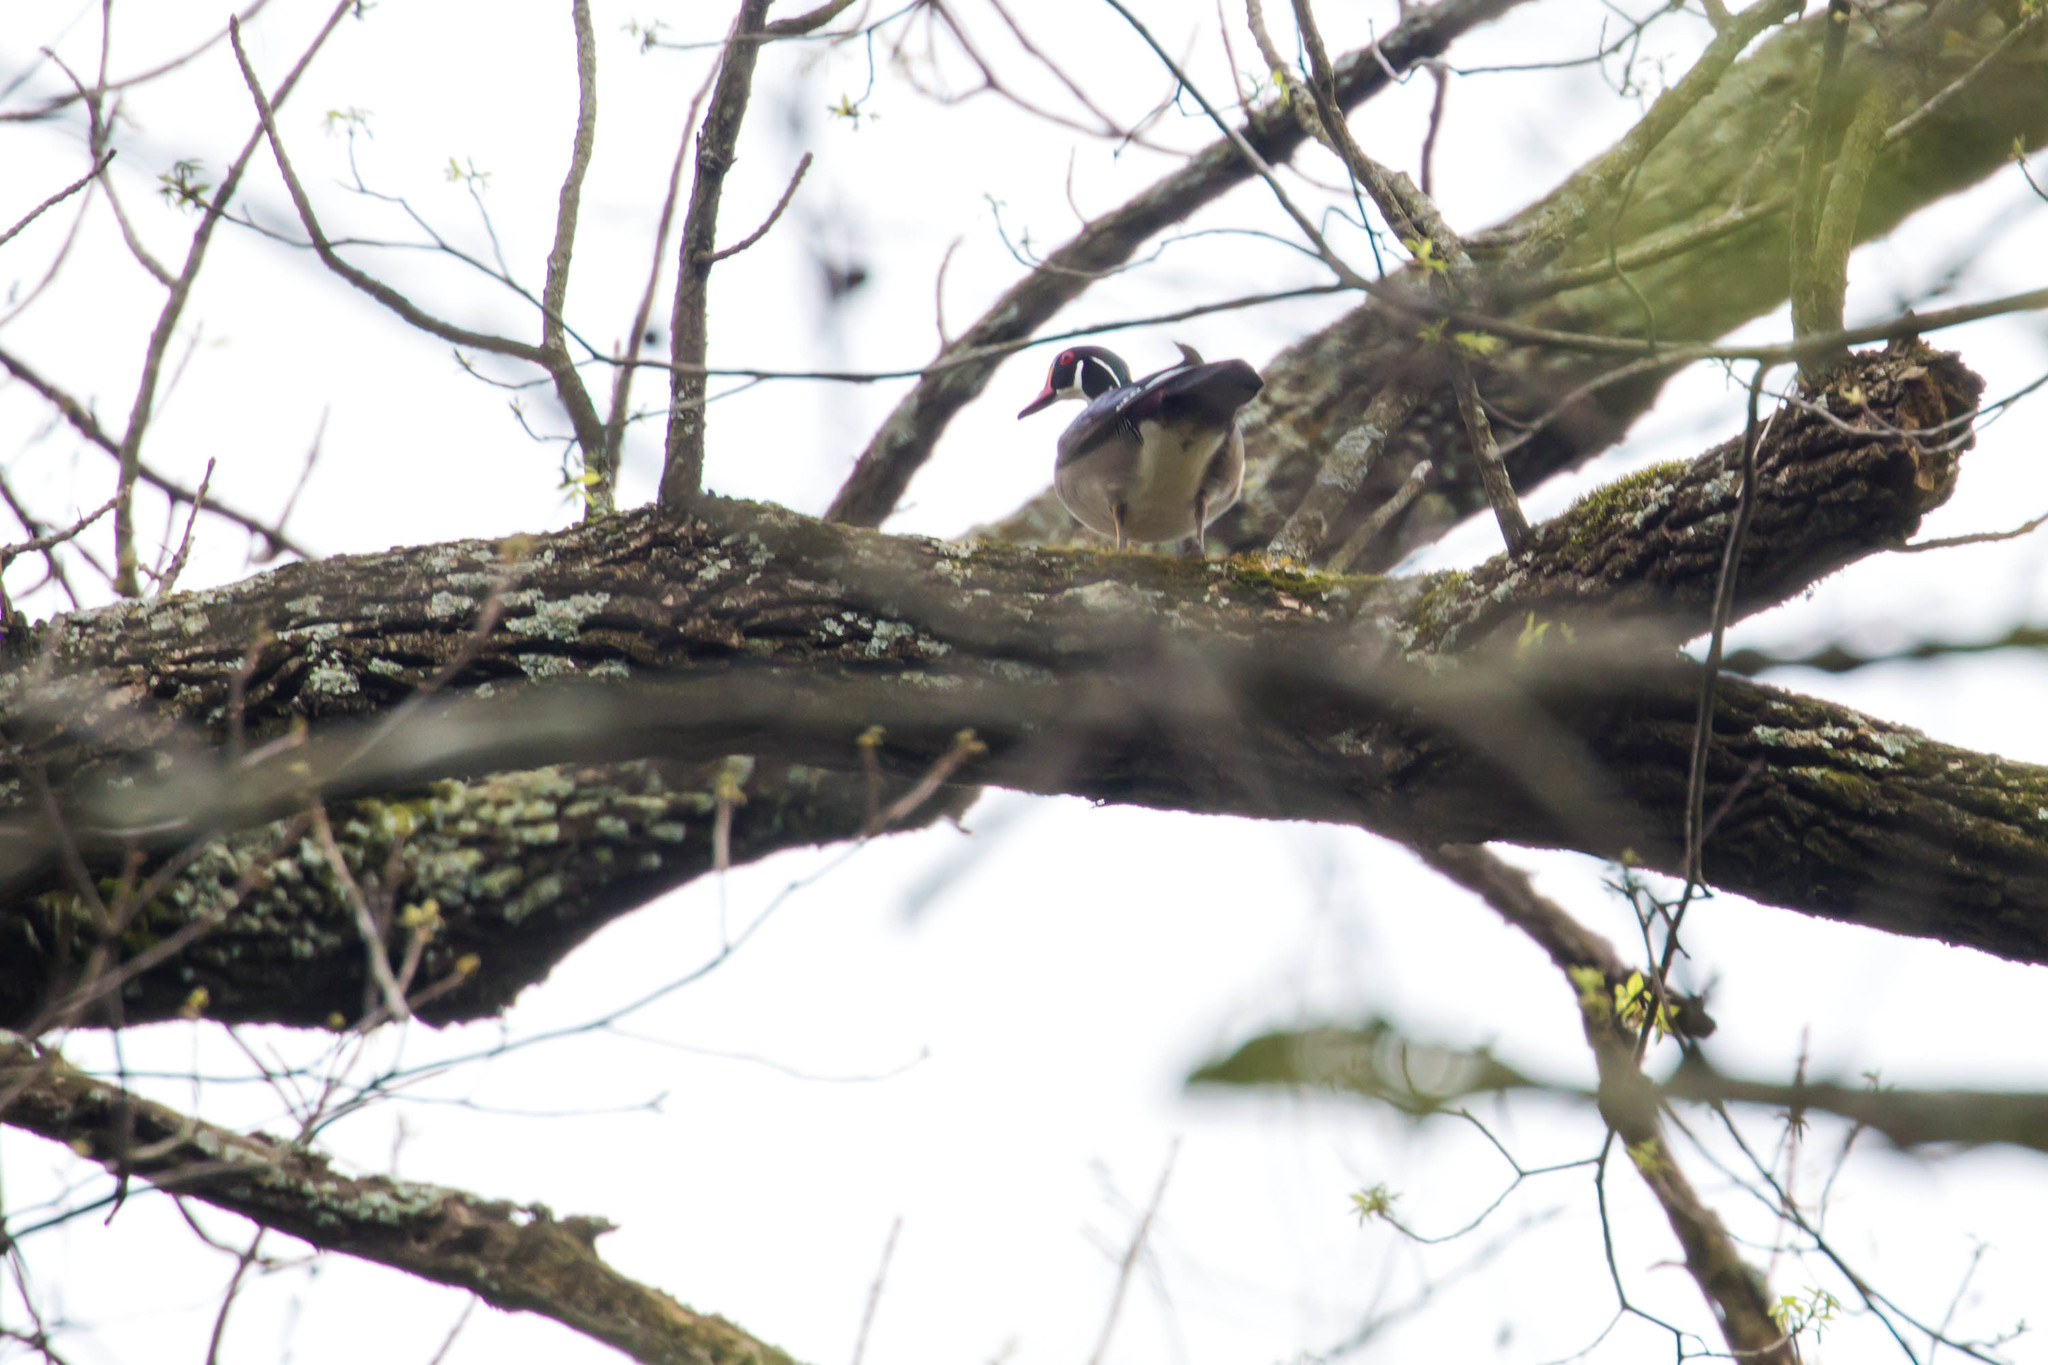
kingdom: Animalia
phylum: Chordata
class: Aves
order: Anseriformes
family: Anatidae
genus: Aix
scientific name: Aix sponsa
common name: Wood duck
